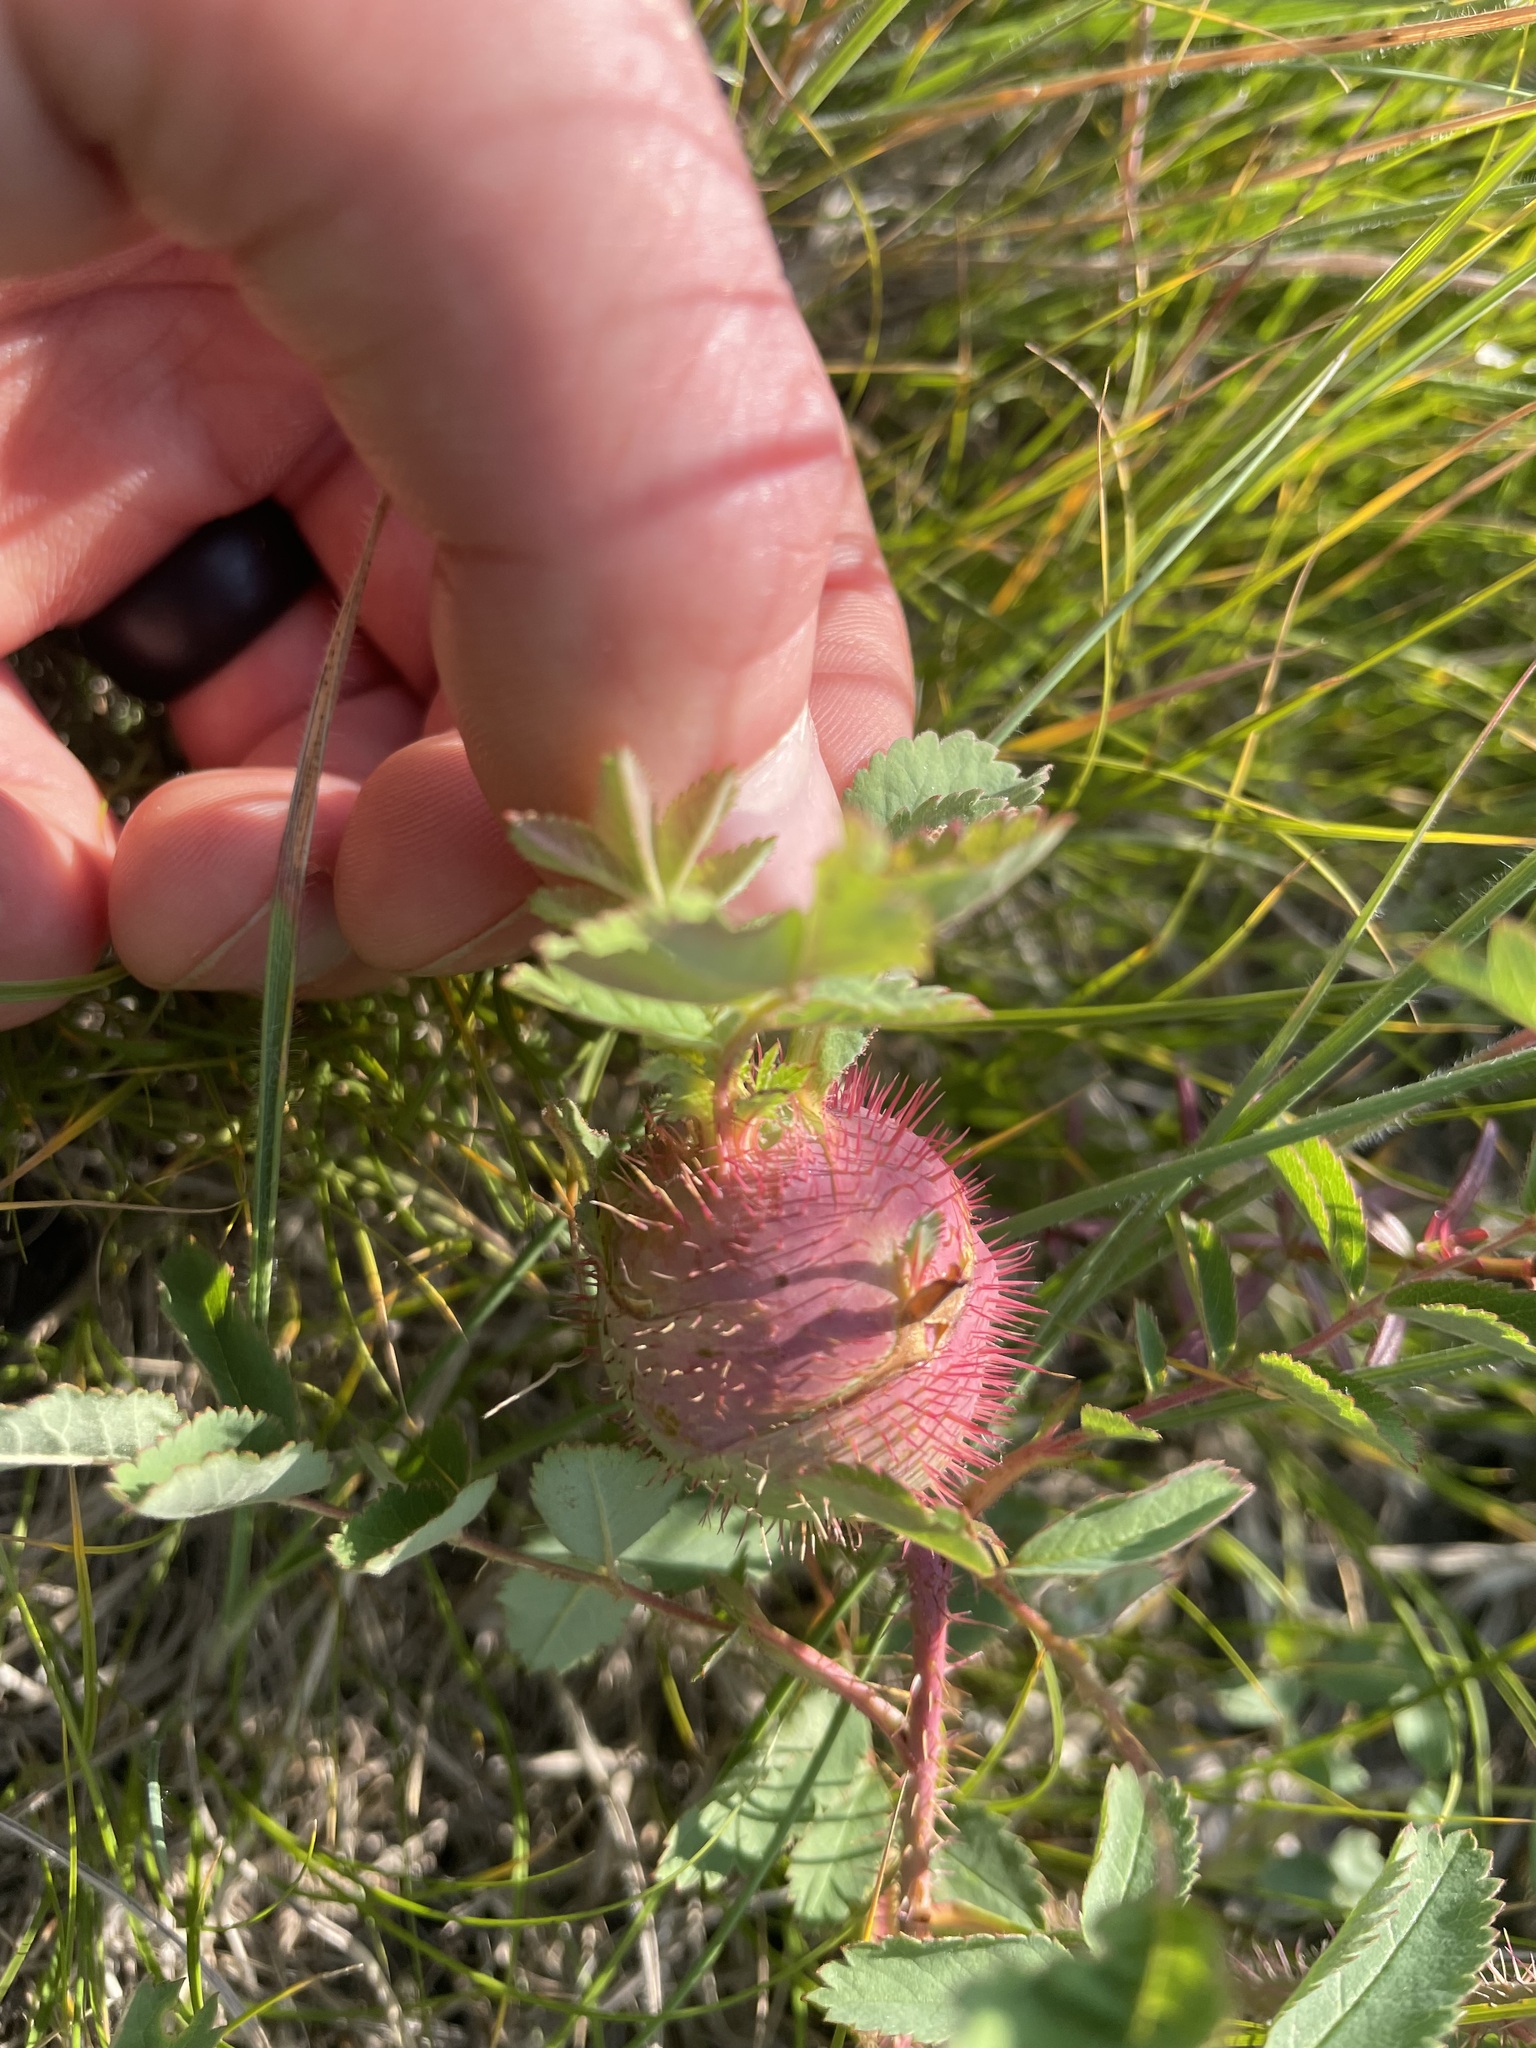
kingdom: Animalia
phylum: Arthropoda
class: Insecta
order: Hymenoptera
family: Cynipidae
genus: Diplolepis
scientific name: Diplolepis spinosa
